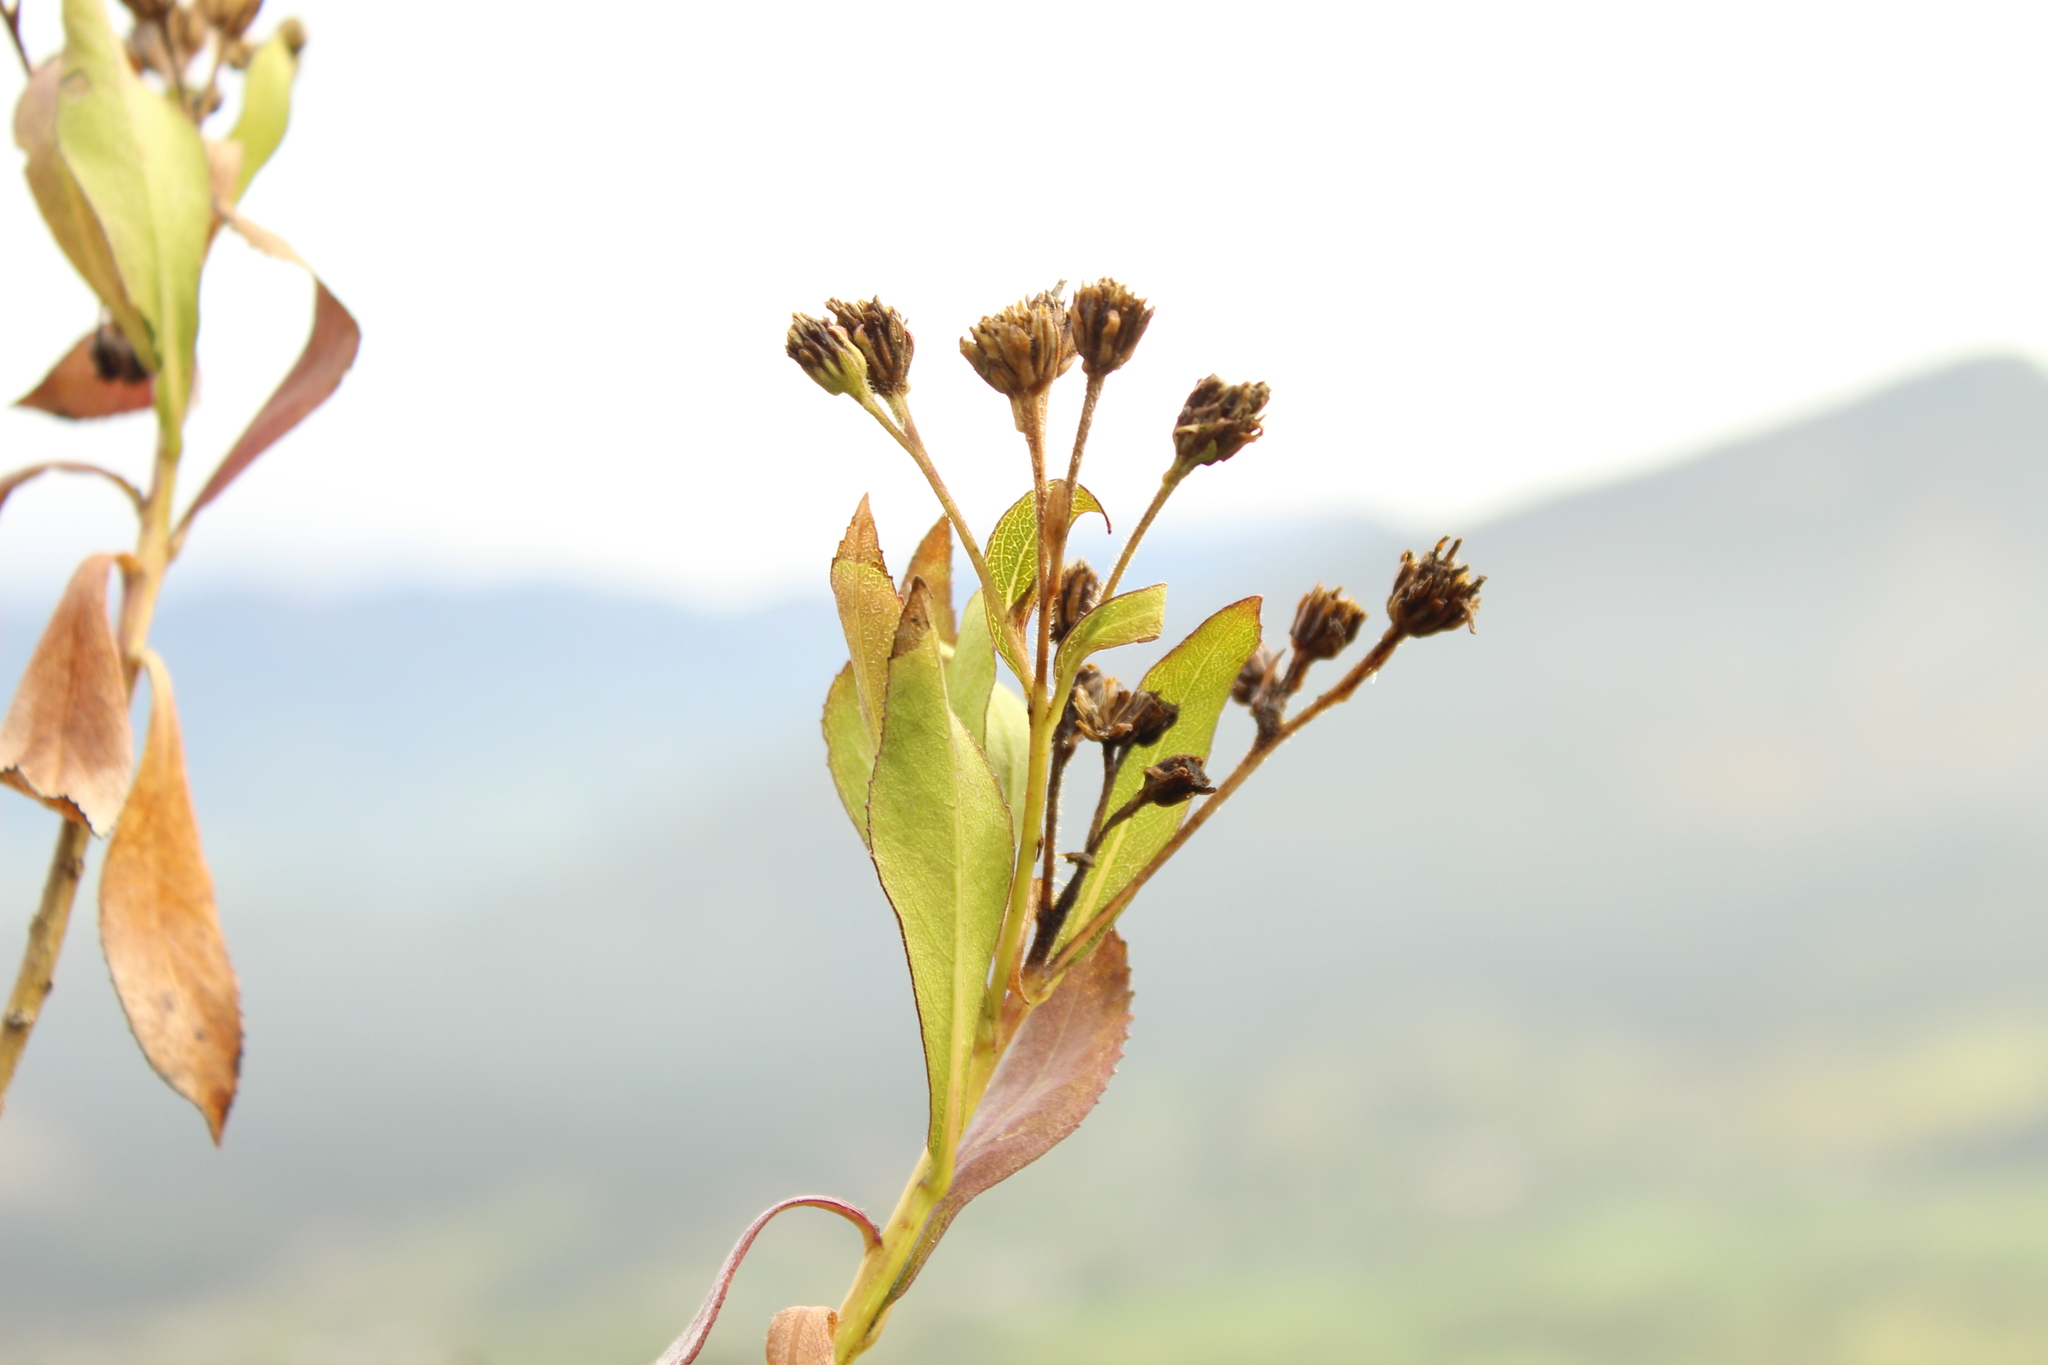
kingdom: Plantae
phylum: Tracheophyta
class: Magnoliopsida
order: Asterales
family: Asteraceae
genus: Verbesina
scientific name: Verbesina centroboyacana
